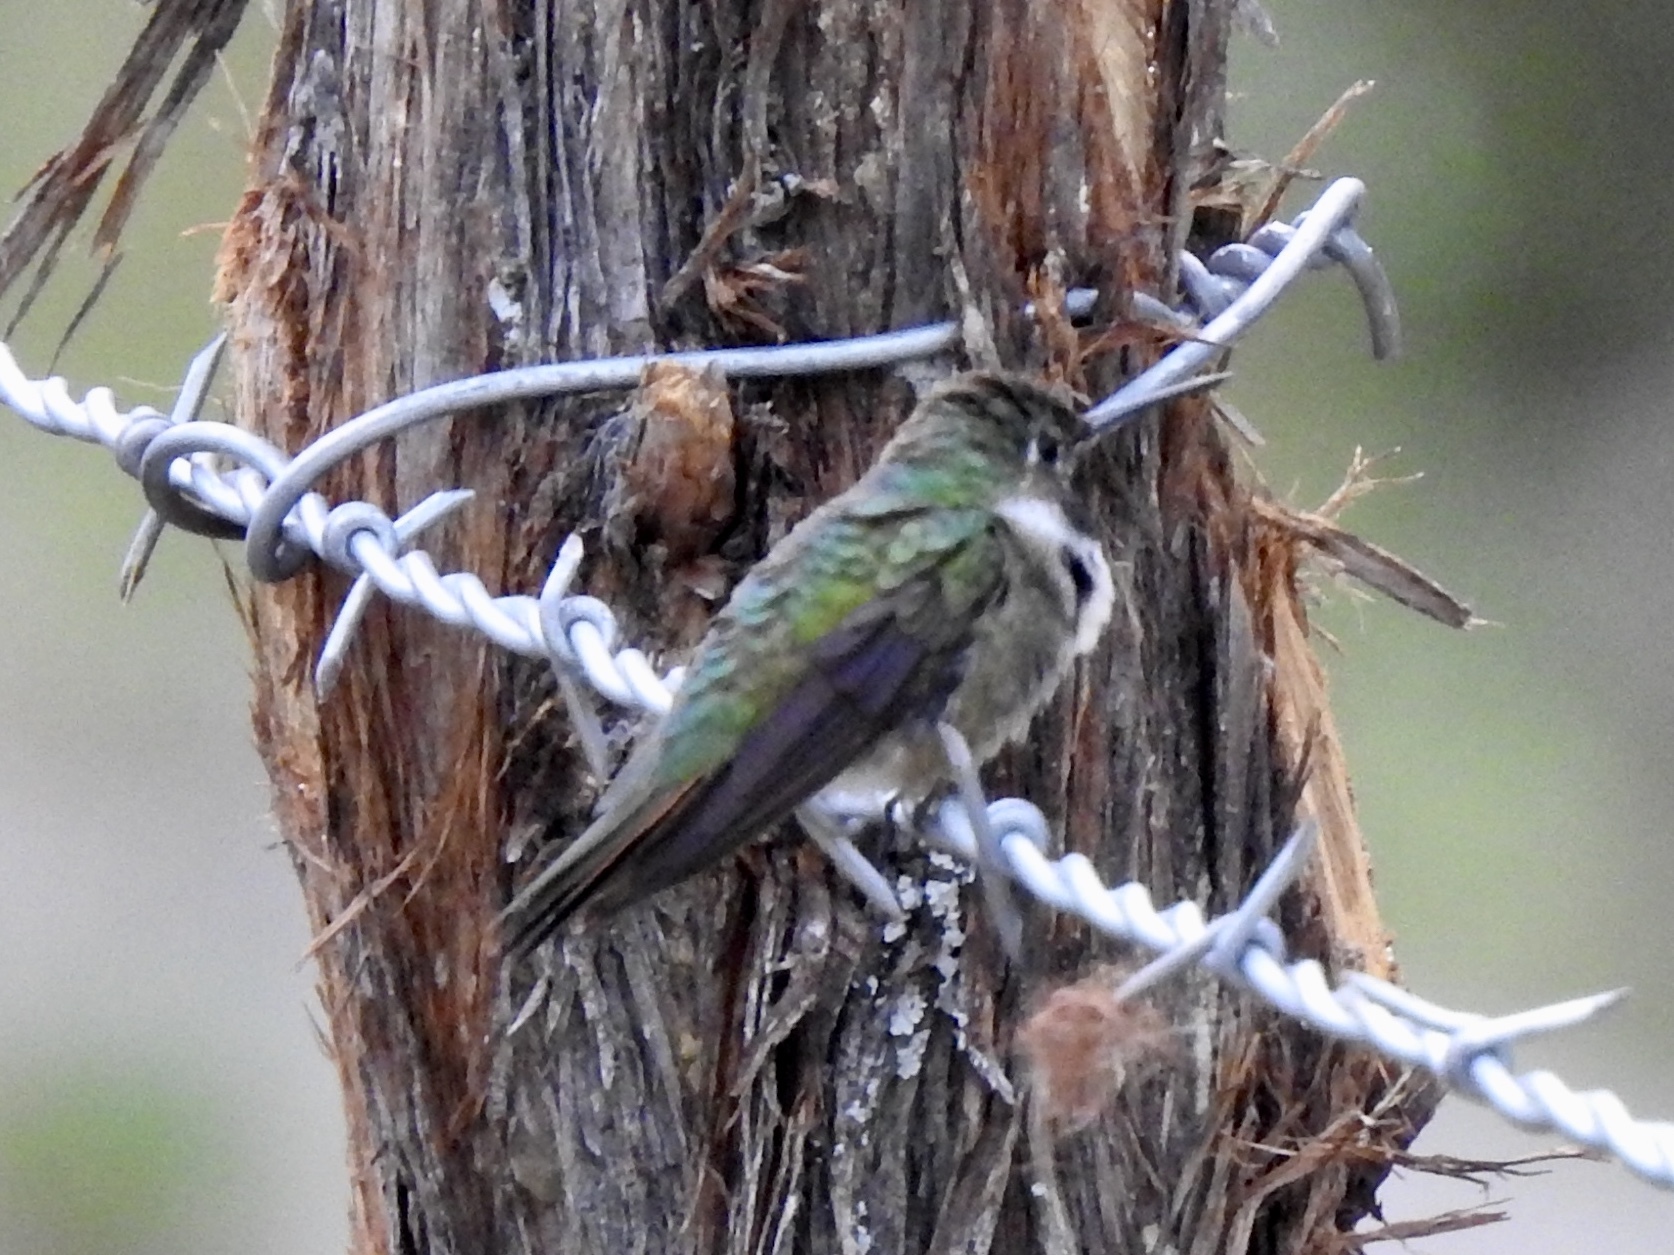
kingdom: Animalia
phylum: Chordata
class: Aves
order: Apodiformes
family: Trochilidae
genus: Selasphorus
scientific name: Selasphorus platycercus
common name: Broad-tailed hummingbird
